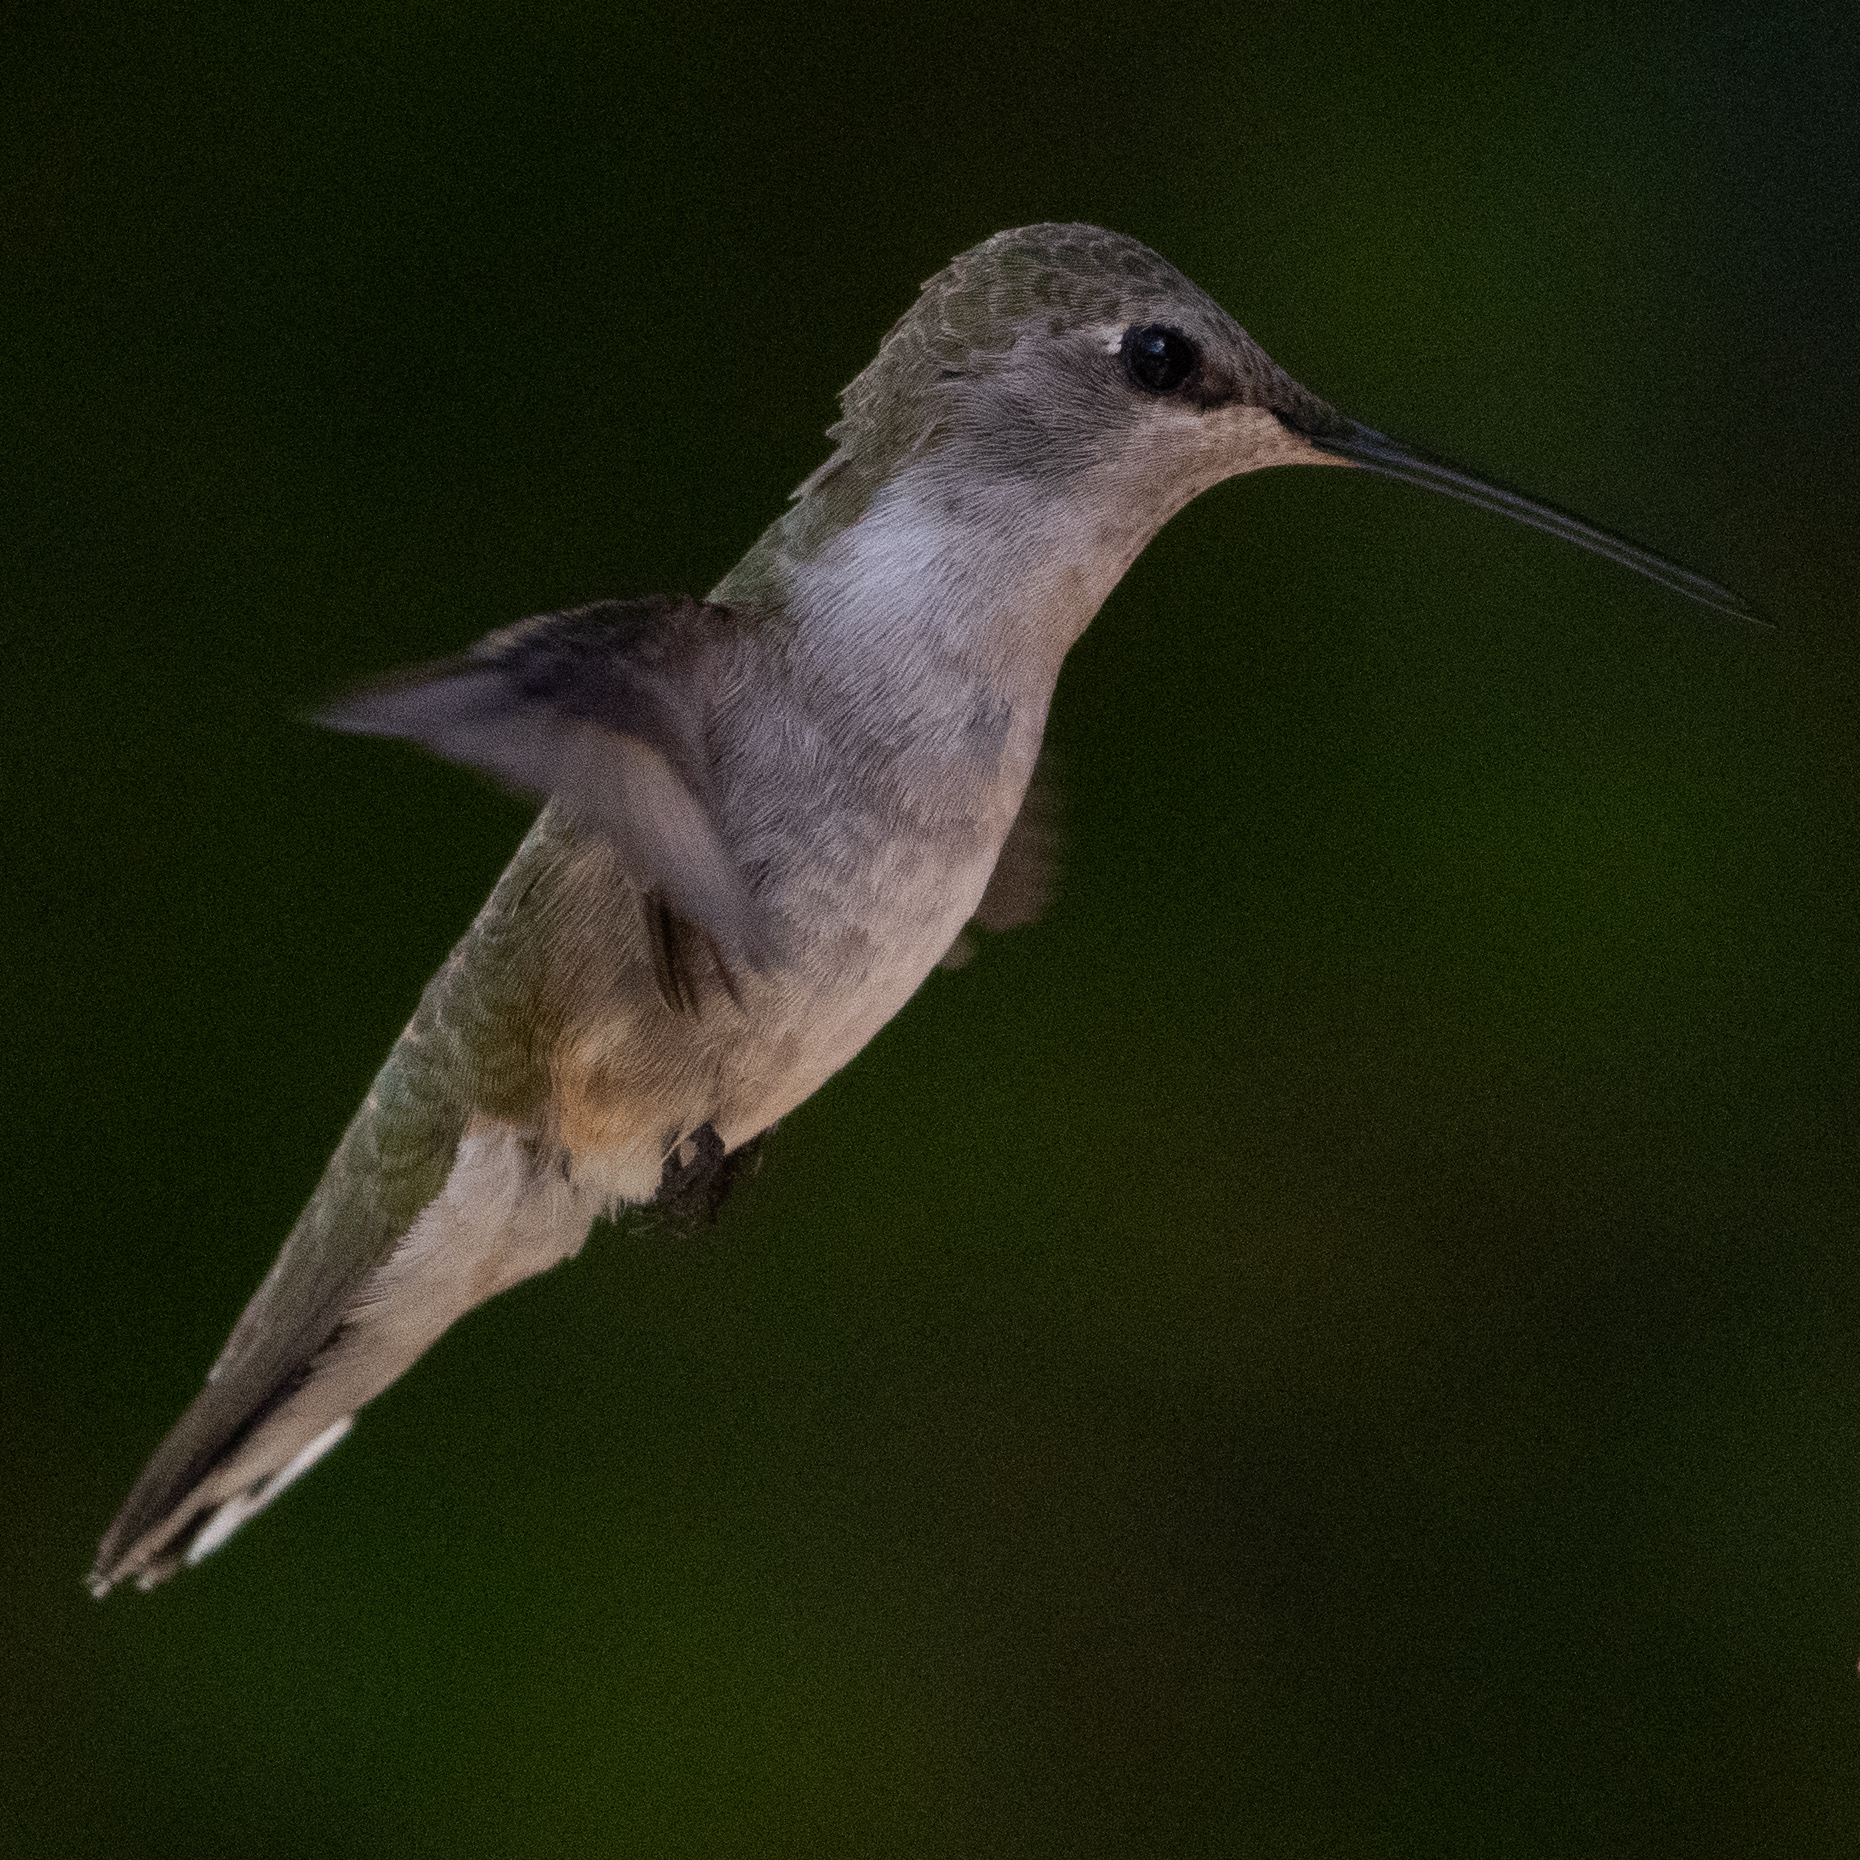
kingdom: Animalia
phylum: Chordata
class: Aves
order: Apodiformes
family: Trochilidae
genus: Archilochus
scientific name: Archilochus alexandri
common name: Black-chinned hummingbird
